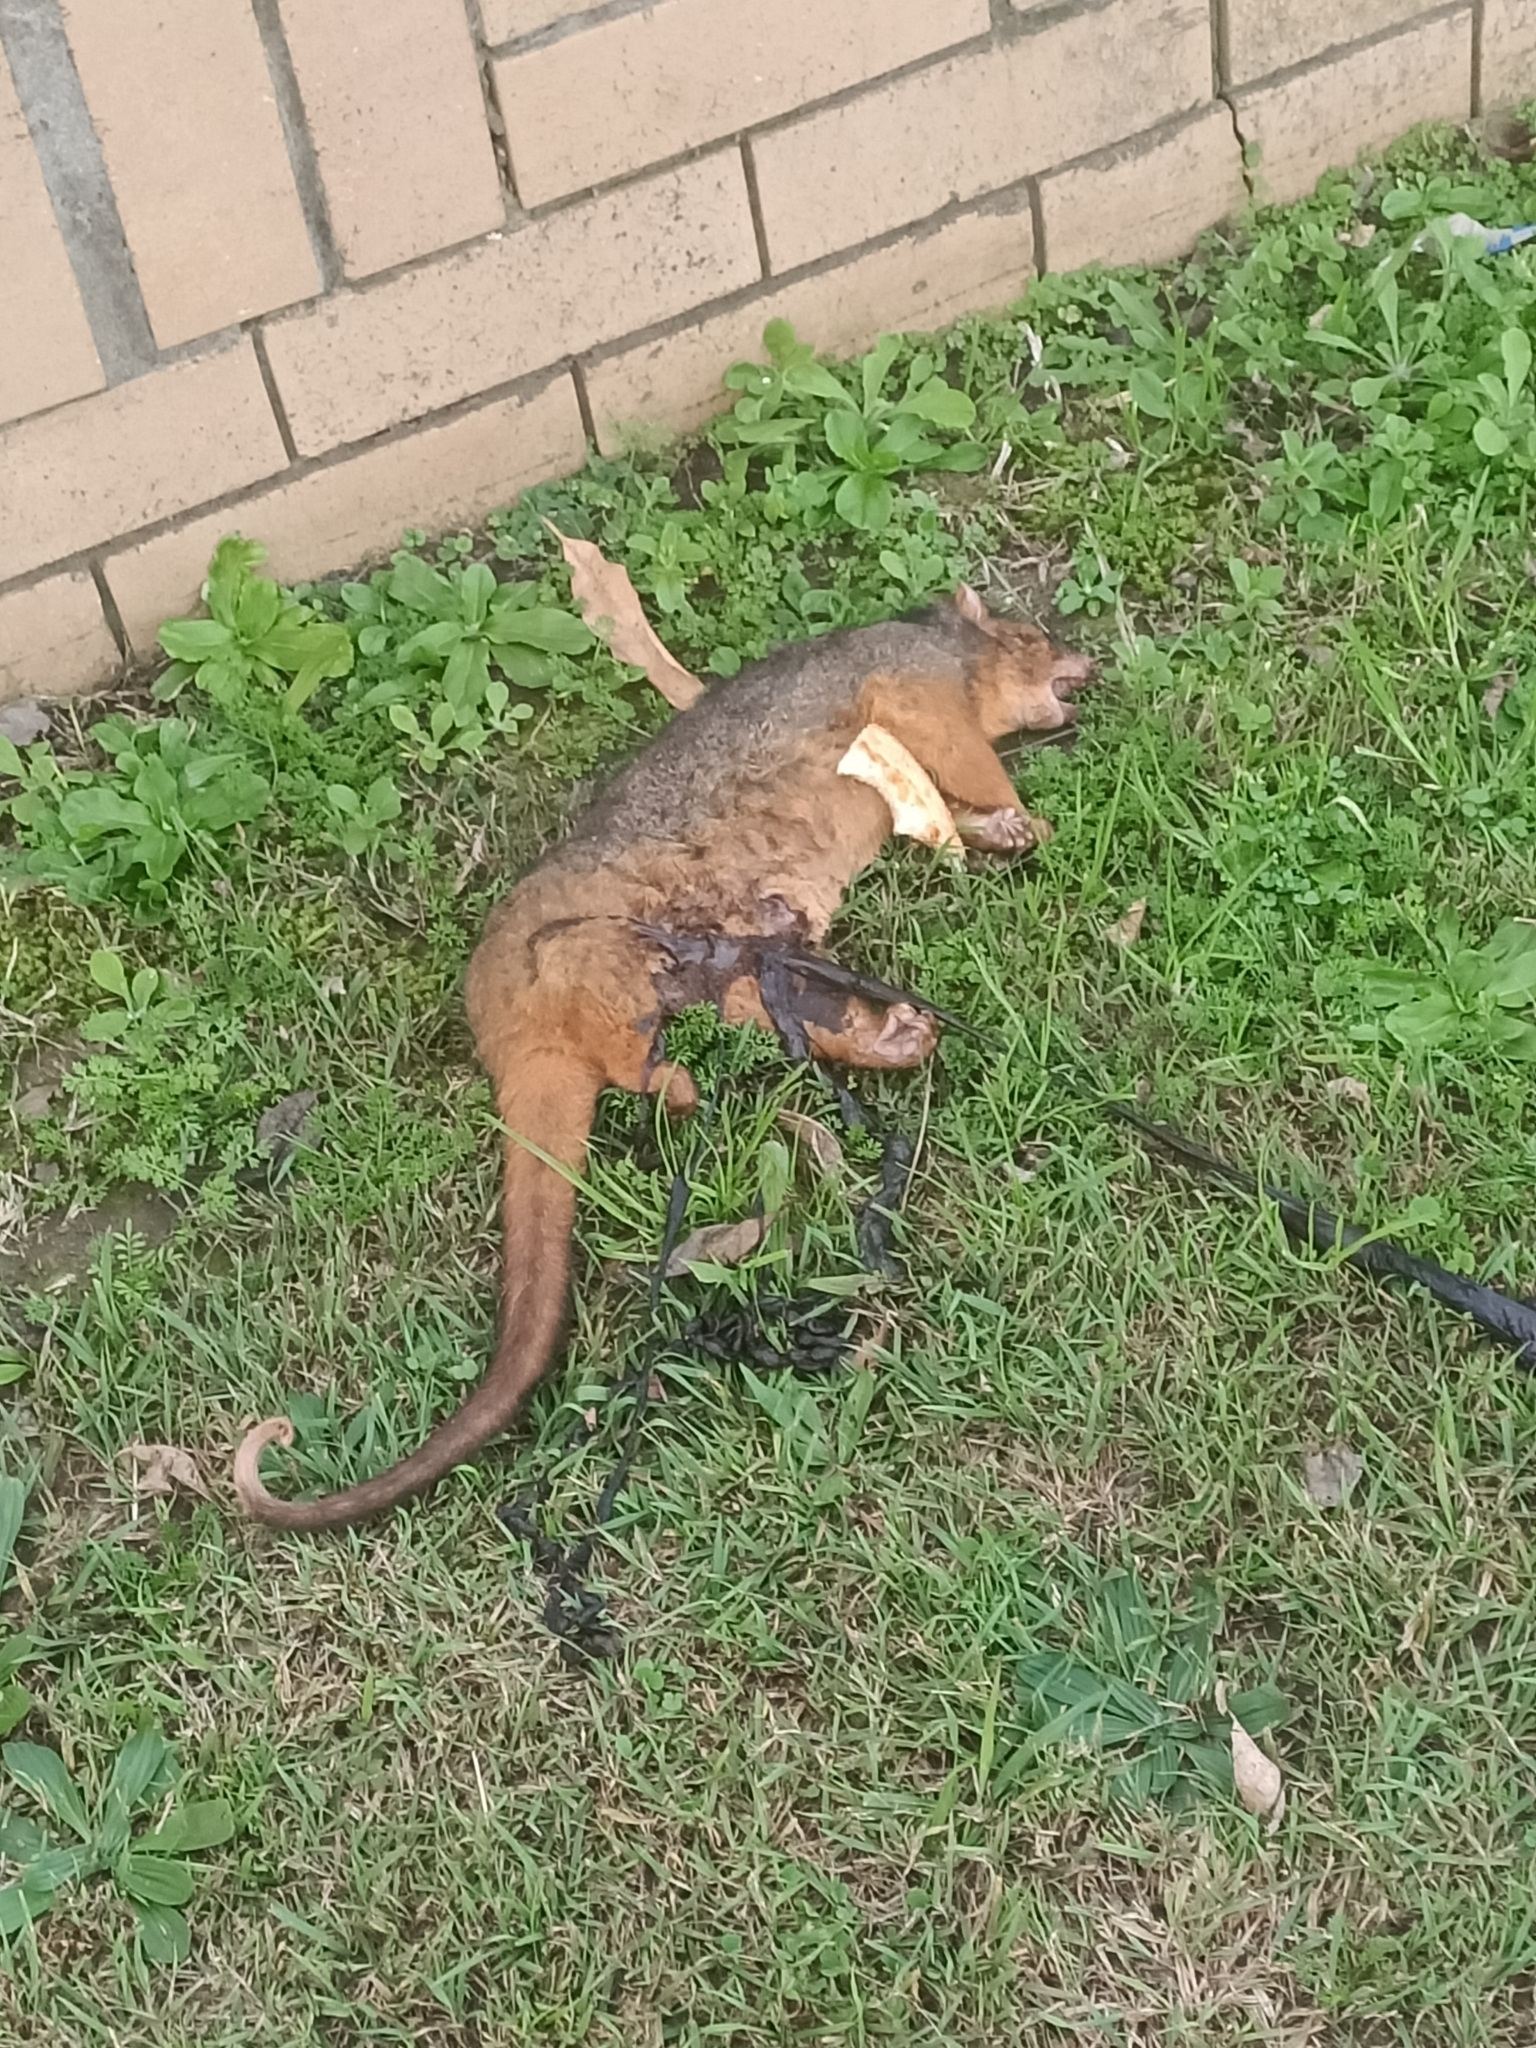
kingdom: Animalia
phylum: Chordata
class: Mammalia
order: Diprotodontia
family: Pseudocheiridae
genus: Pseudocheirus
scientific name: Pseudocheirus peregrinus
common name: Common ringtail possum
